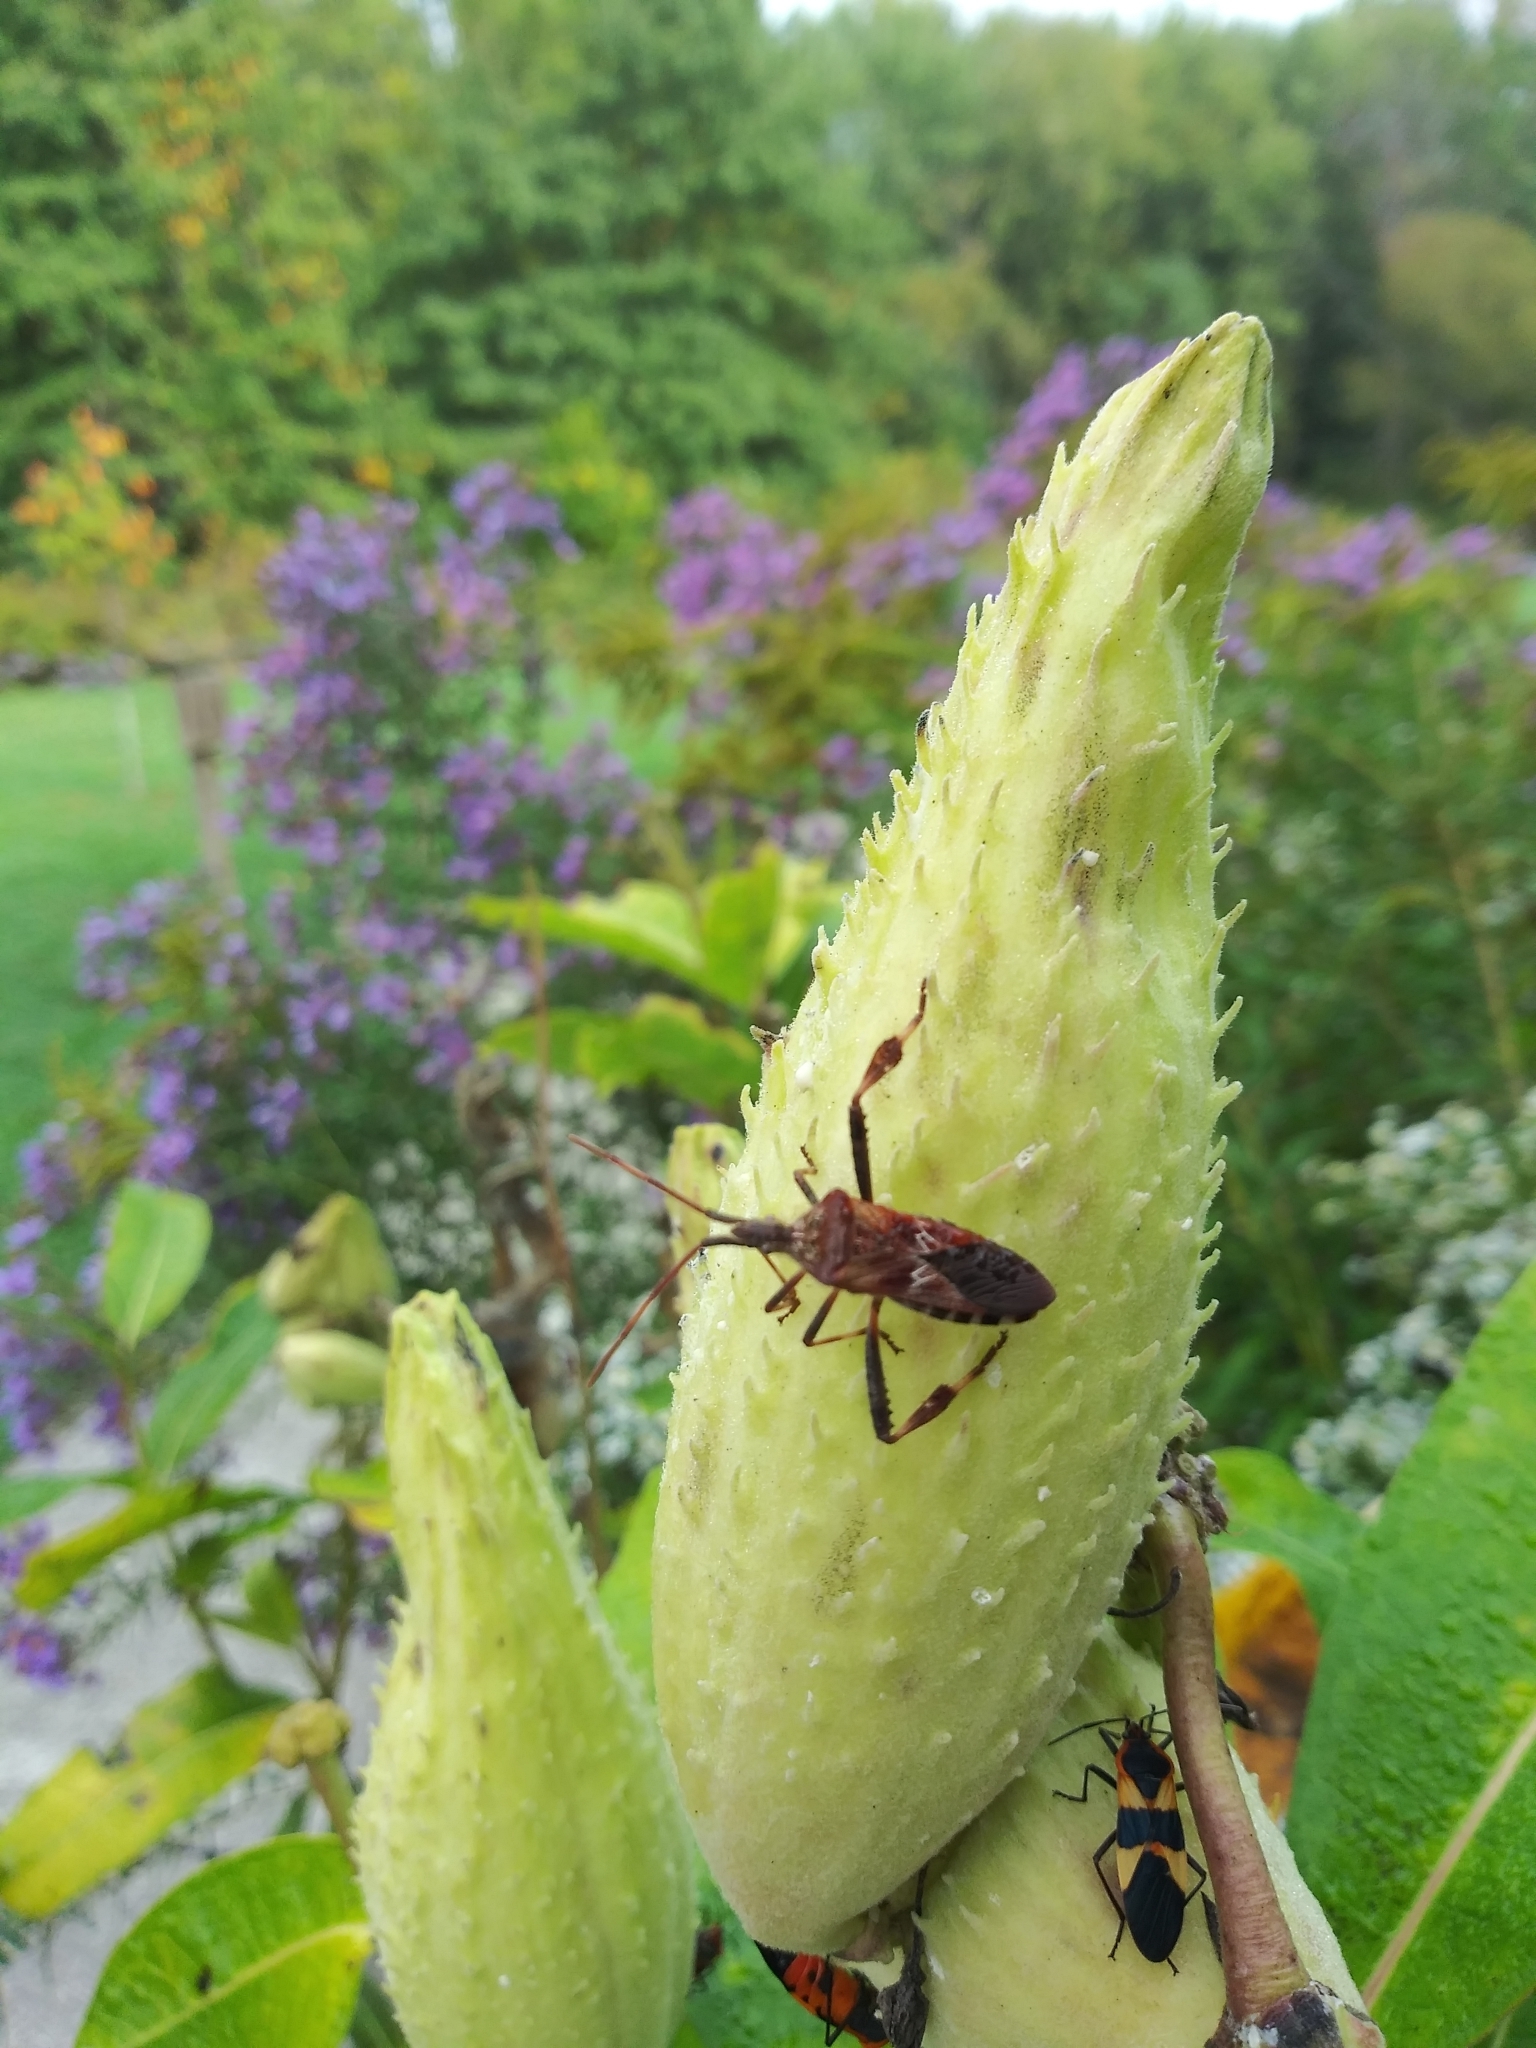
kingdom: Animalia
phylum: Arthropoda
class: Insecta
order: Hemiptera
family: Coreidae
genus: Leptoglossus
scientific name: Leptoglossus occidentalis
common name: Western conifer-seed bug
